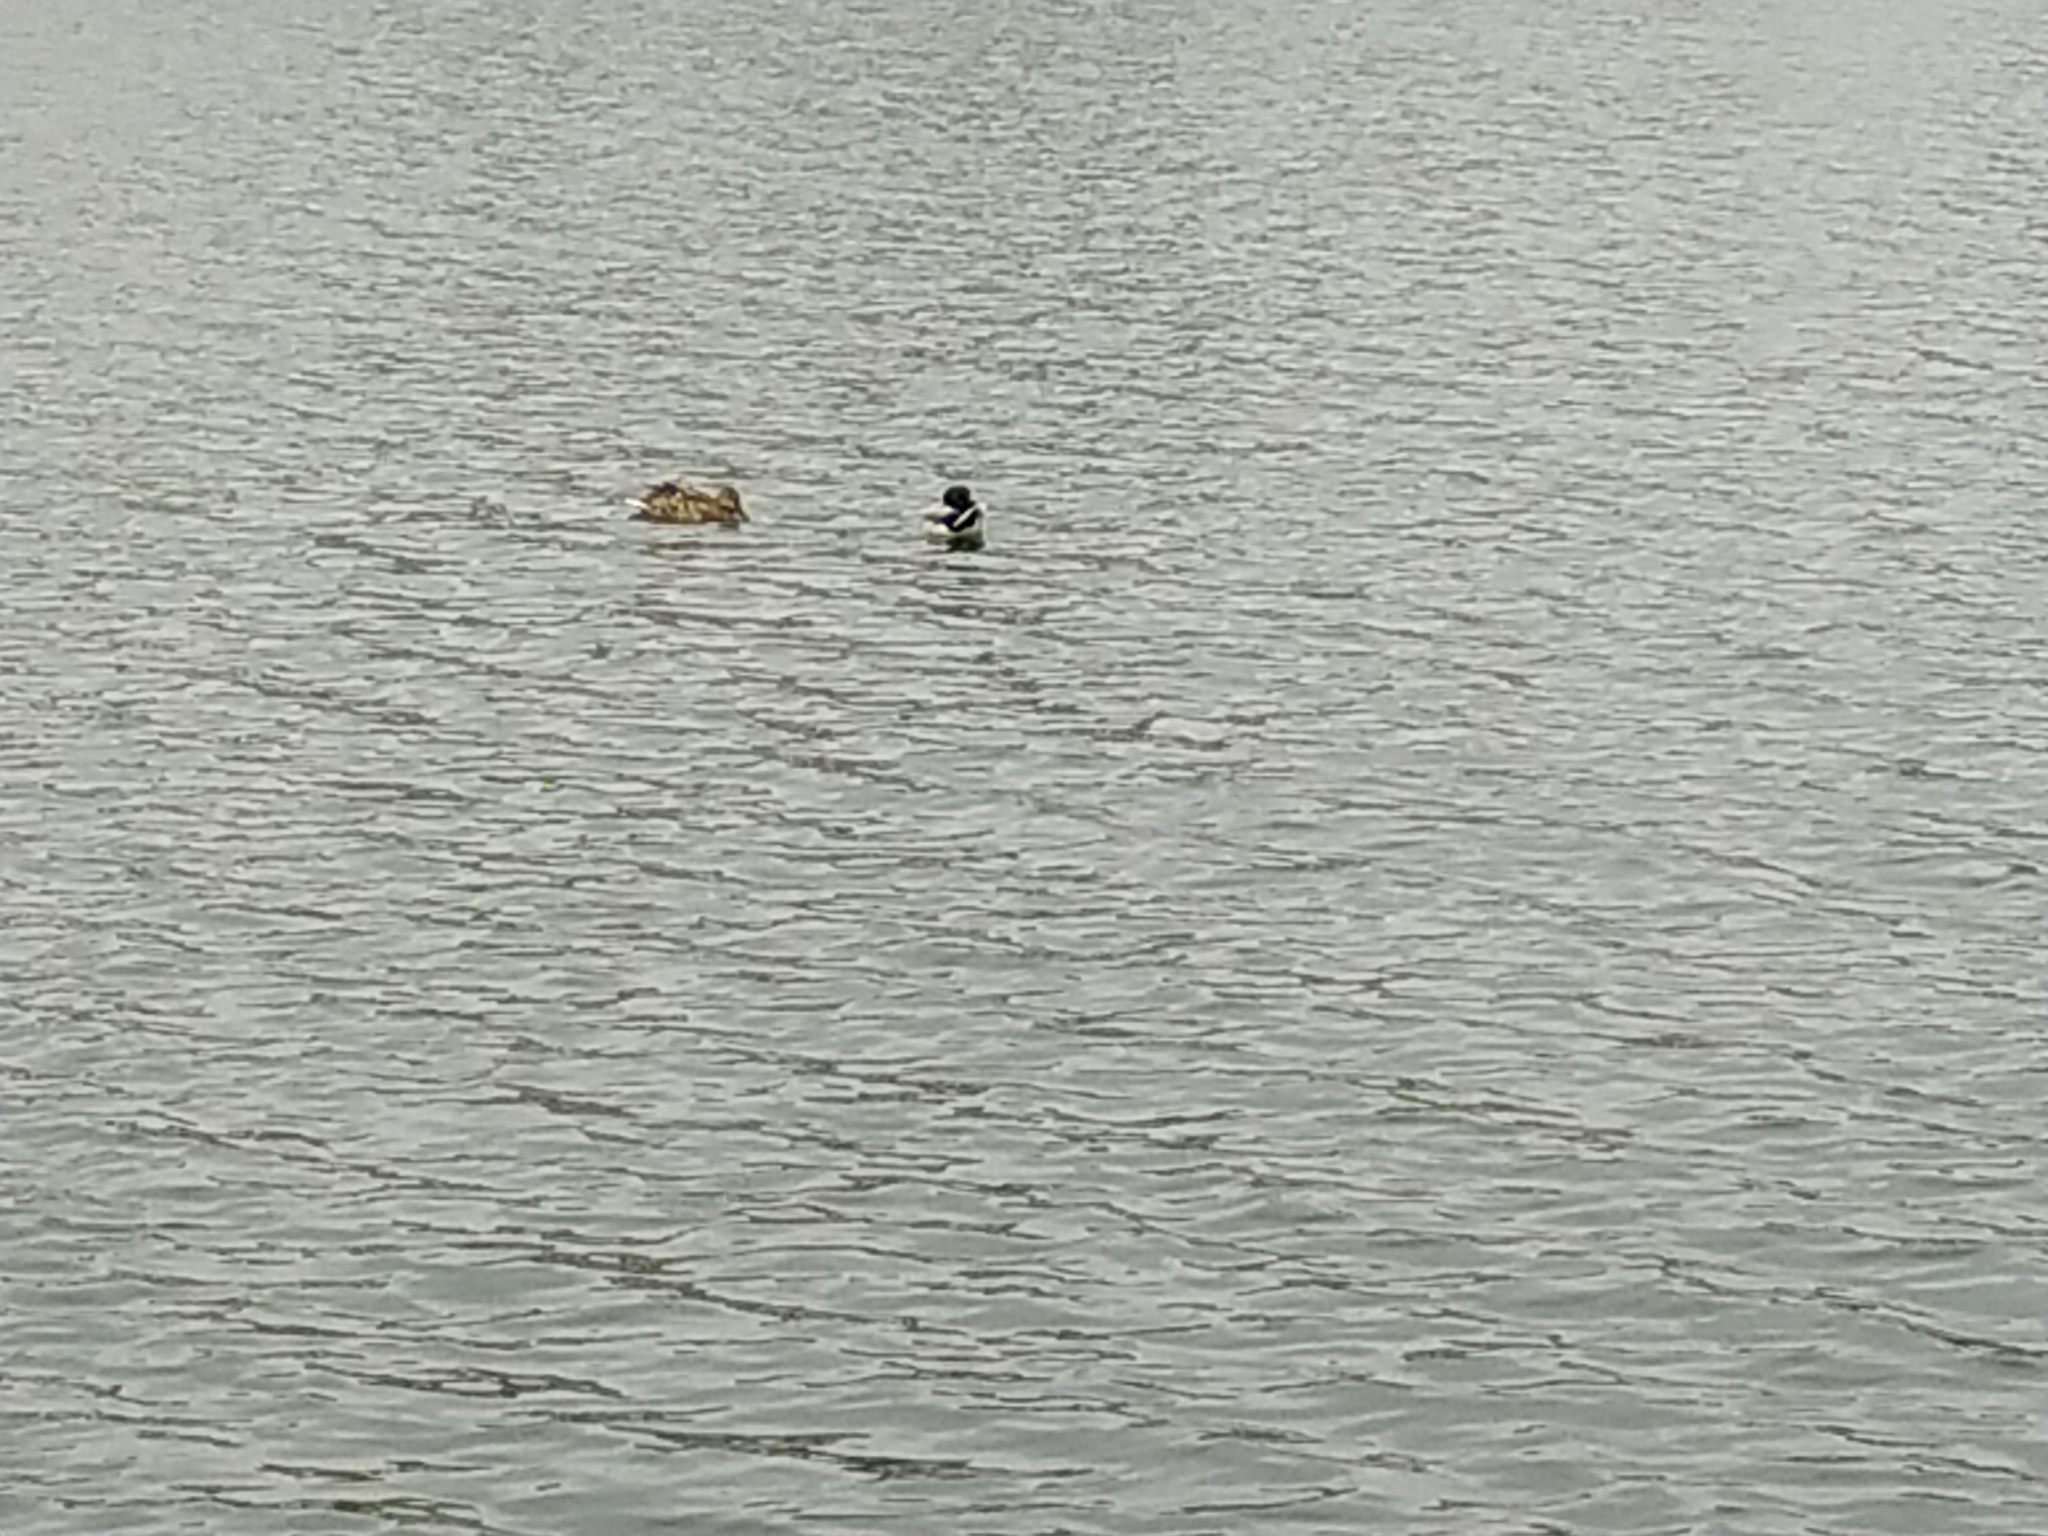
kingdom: Animalia
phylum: Chordata
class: Aves
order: Anseriformes
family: Anatidae
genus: Anas
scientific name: Anas platyrhynchos
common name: Mallard
